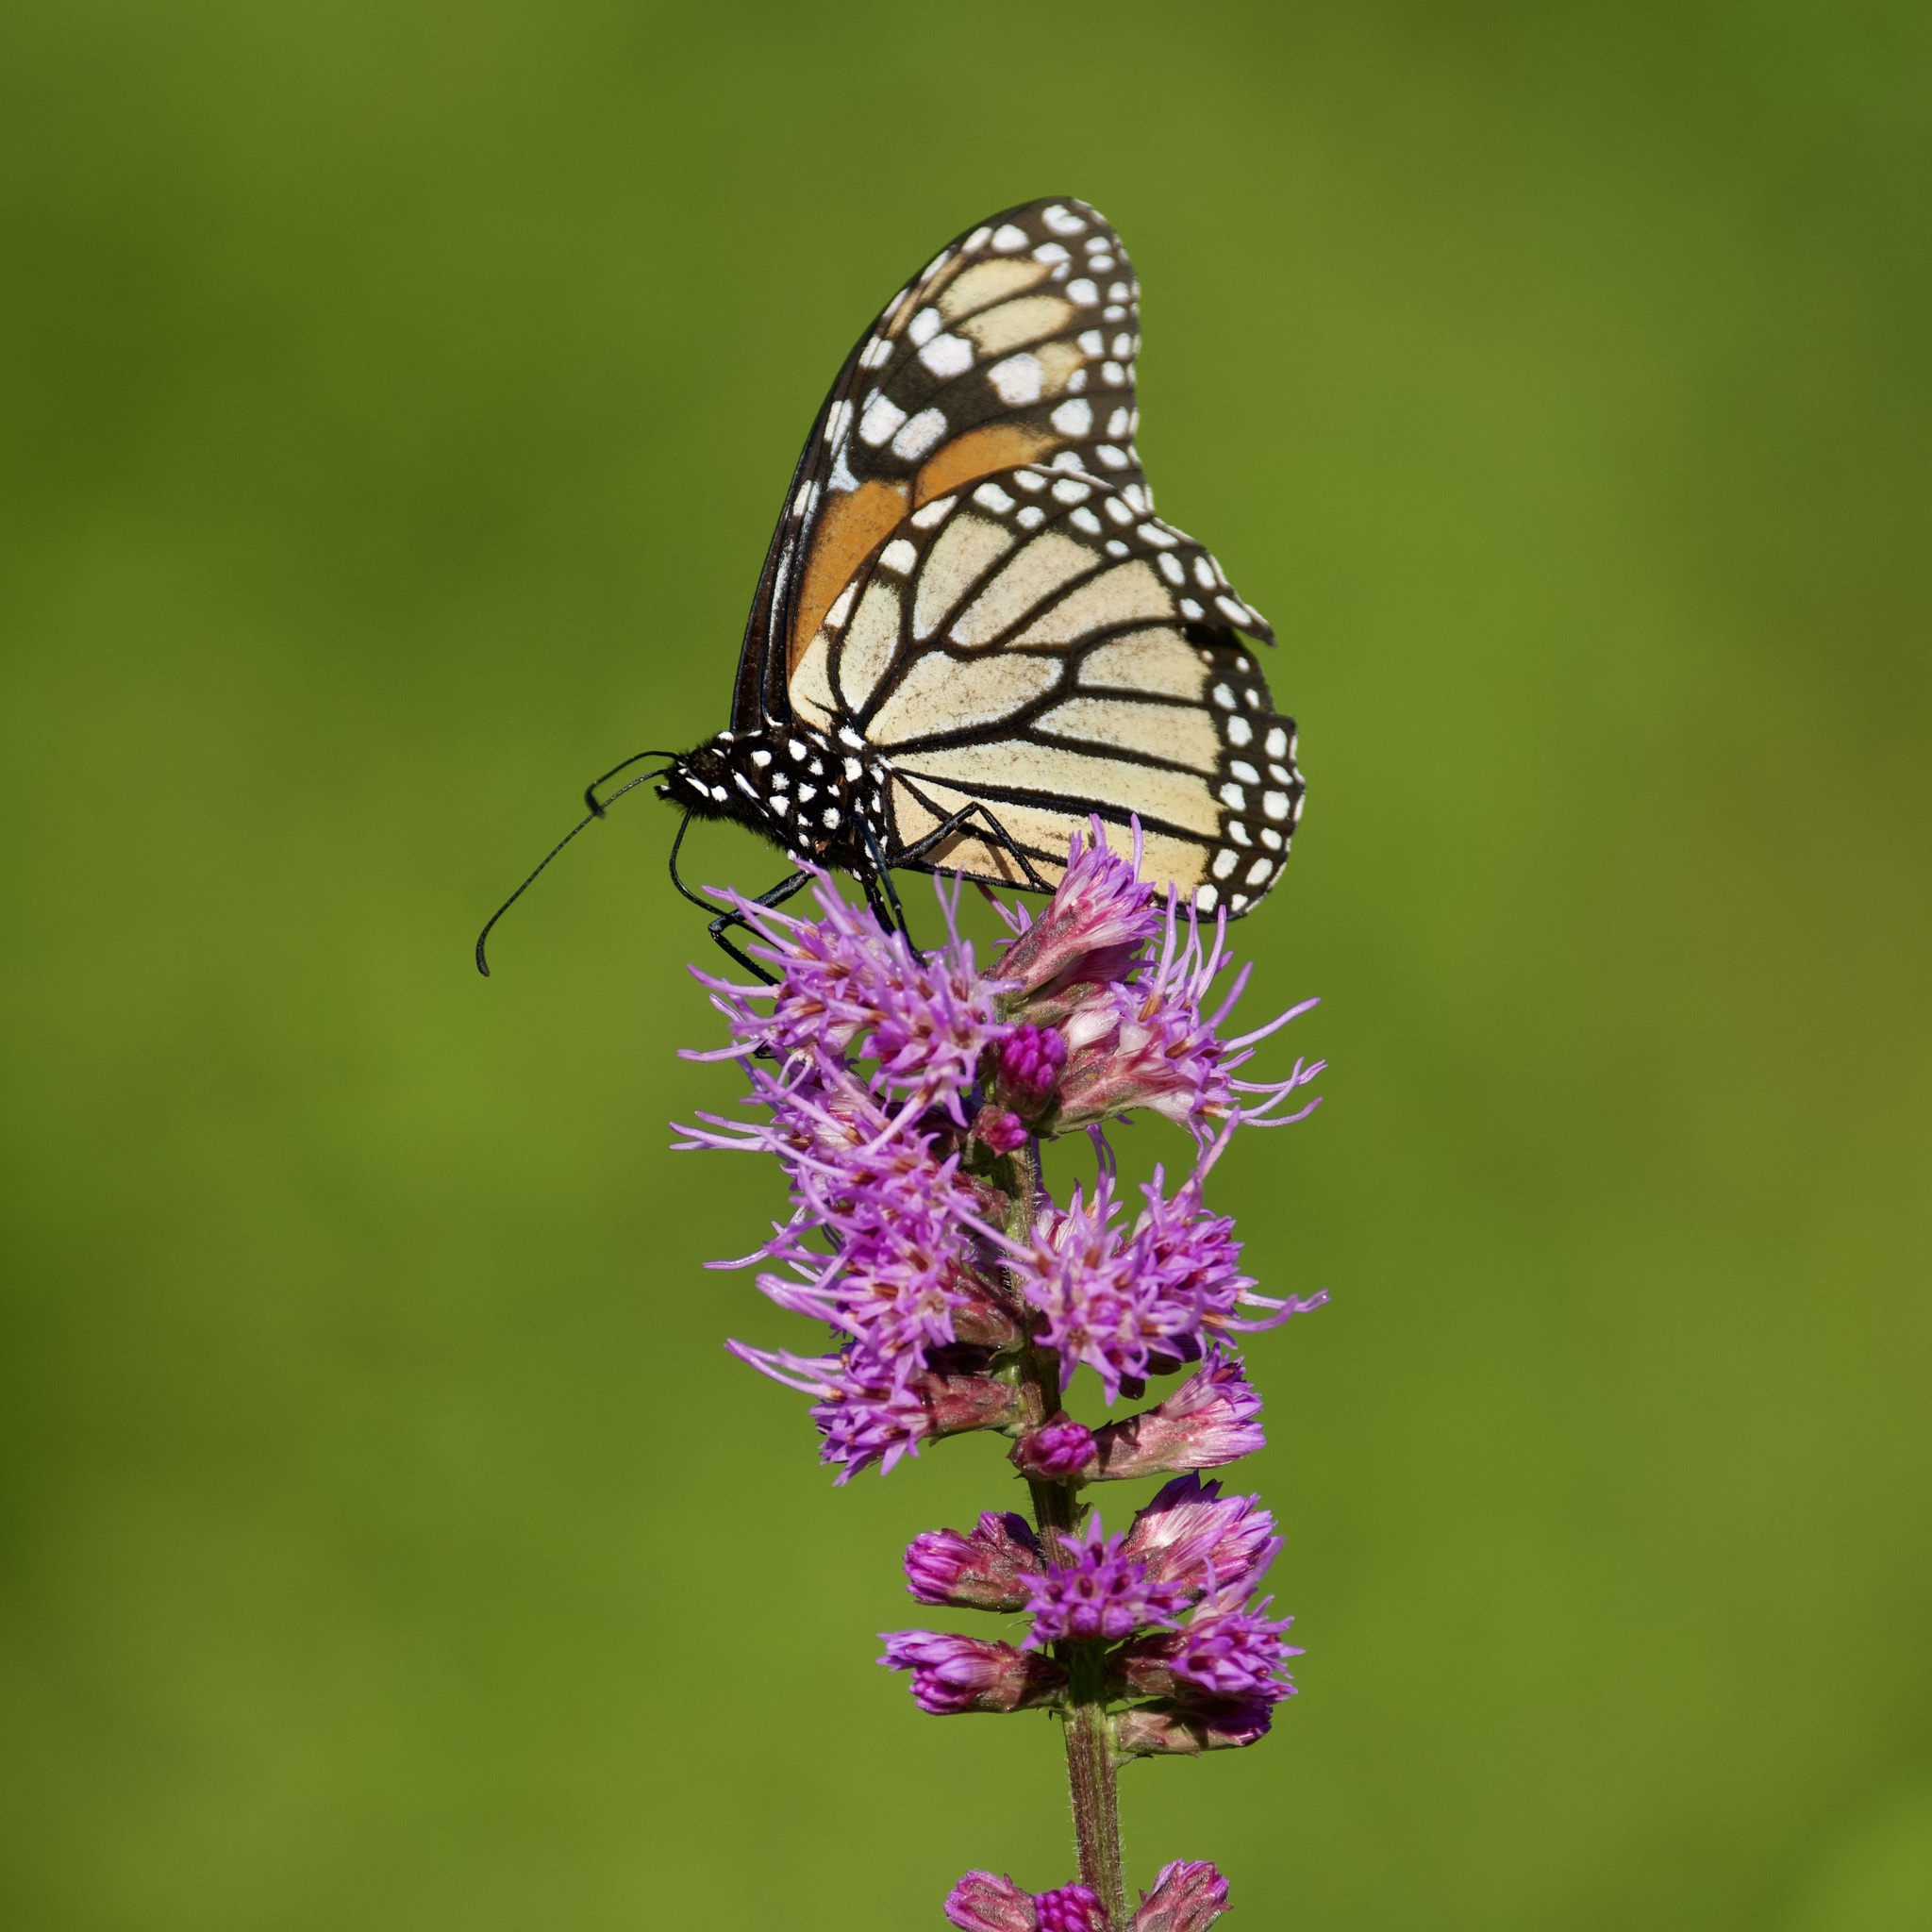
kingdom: Animalia
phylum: Arthropoda
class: Insecta
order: Lepidoptera
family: Nymphalidae
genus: Danaus
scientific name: Danaus plexippus
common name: Monarch
